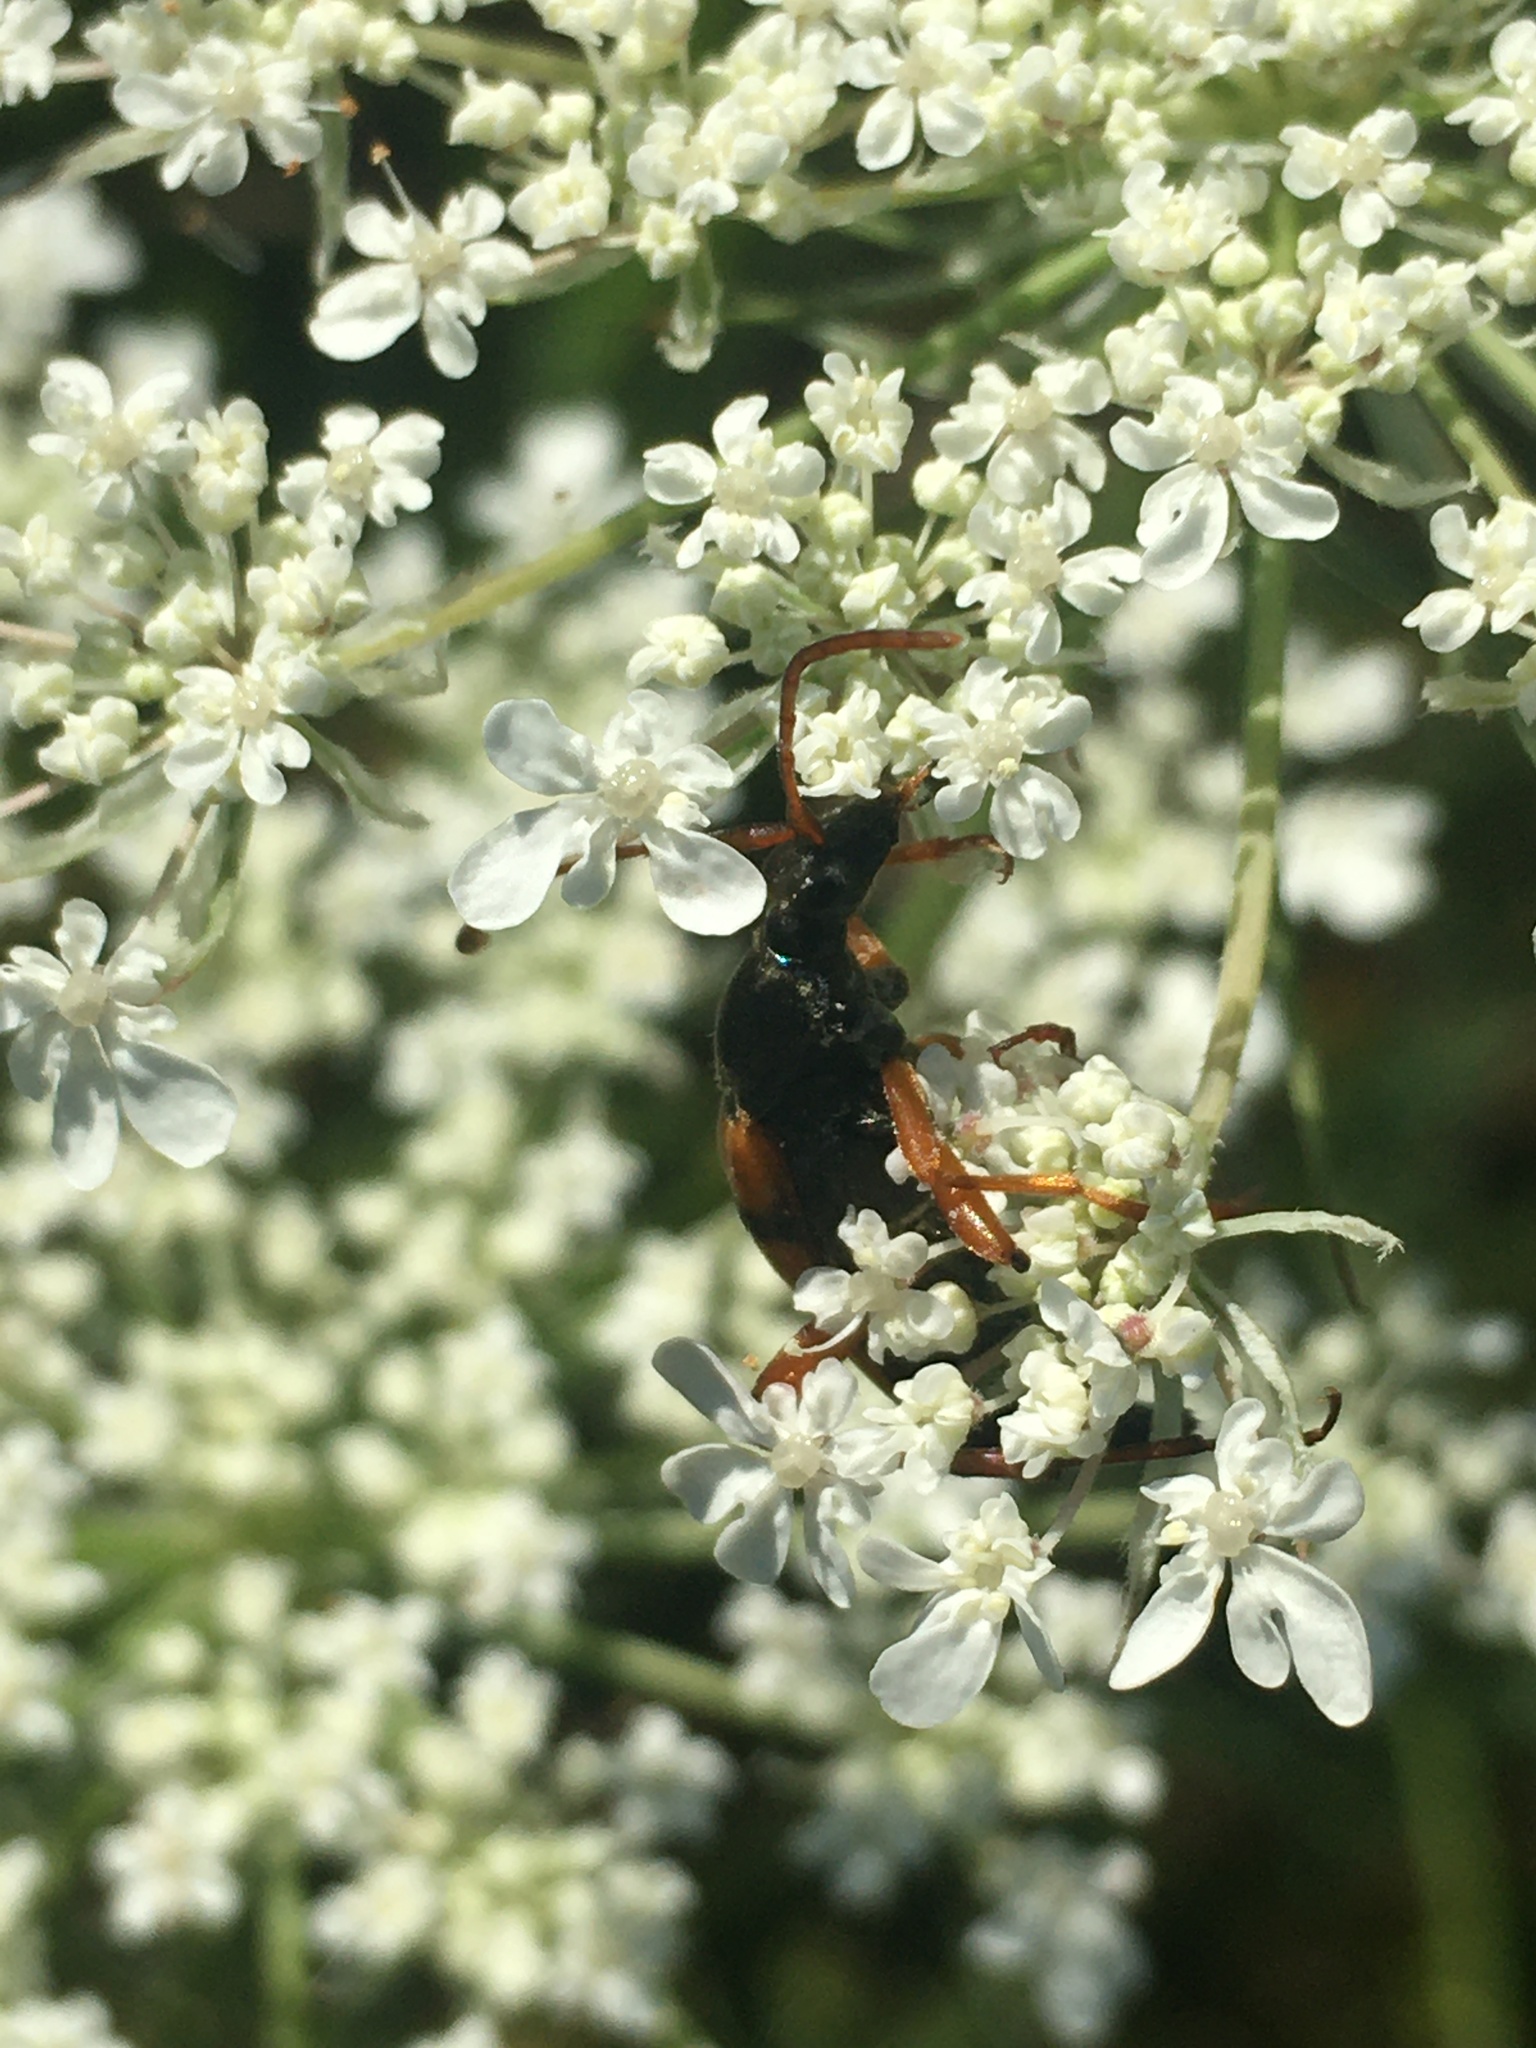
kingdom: Animalia
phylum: Arthropoda
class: Insecta
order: Coleoptera
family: Cerambycidae
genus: Strangalia
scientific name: Strangalia attenuata
